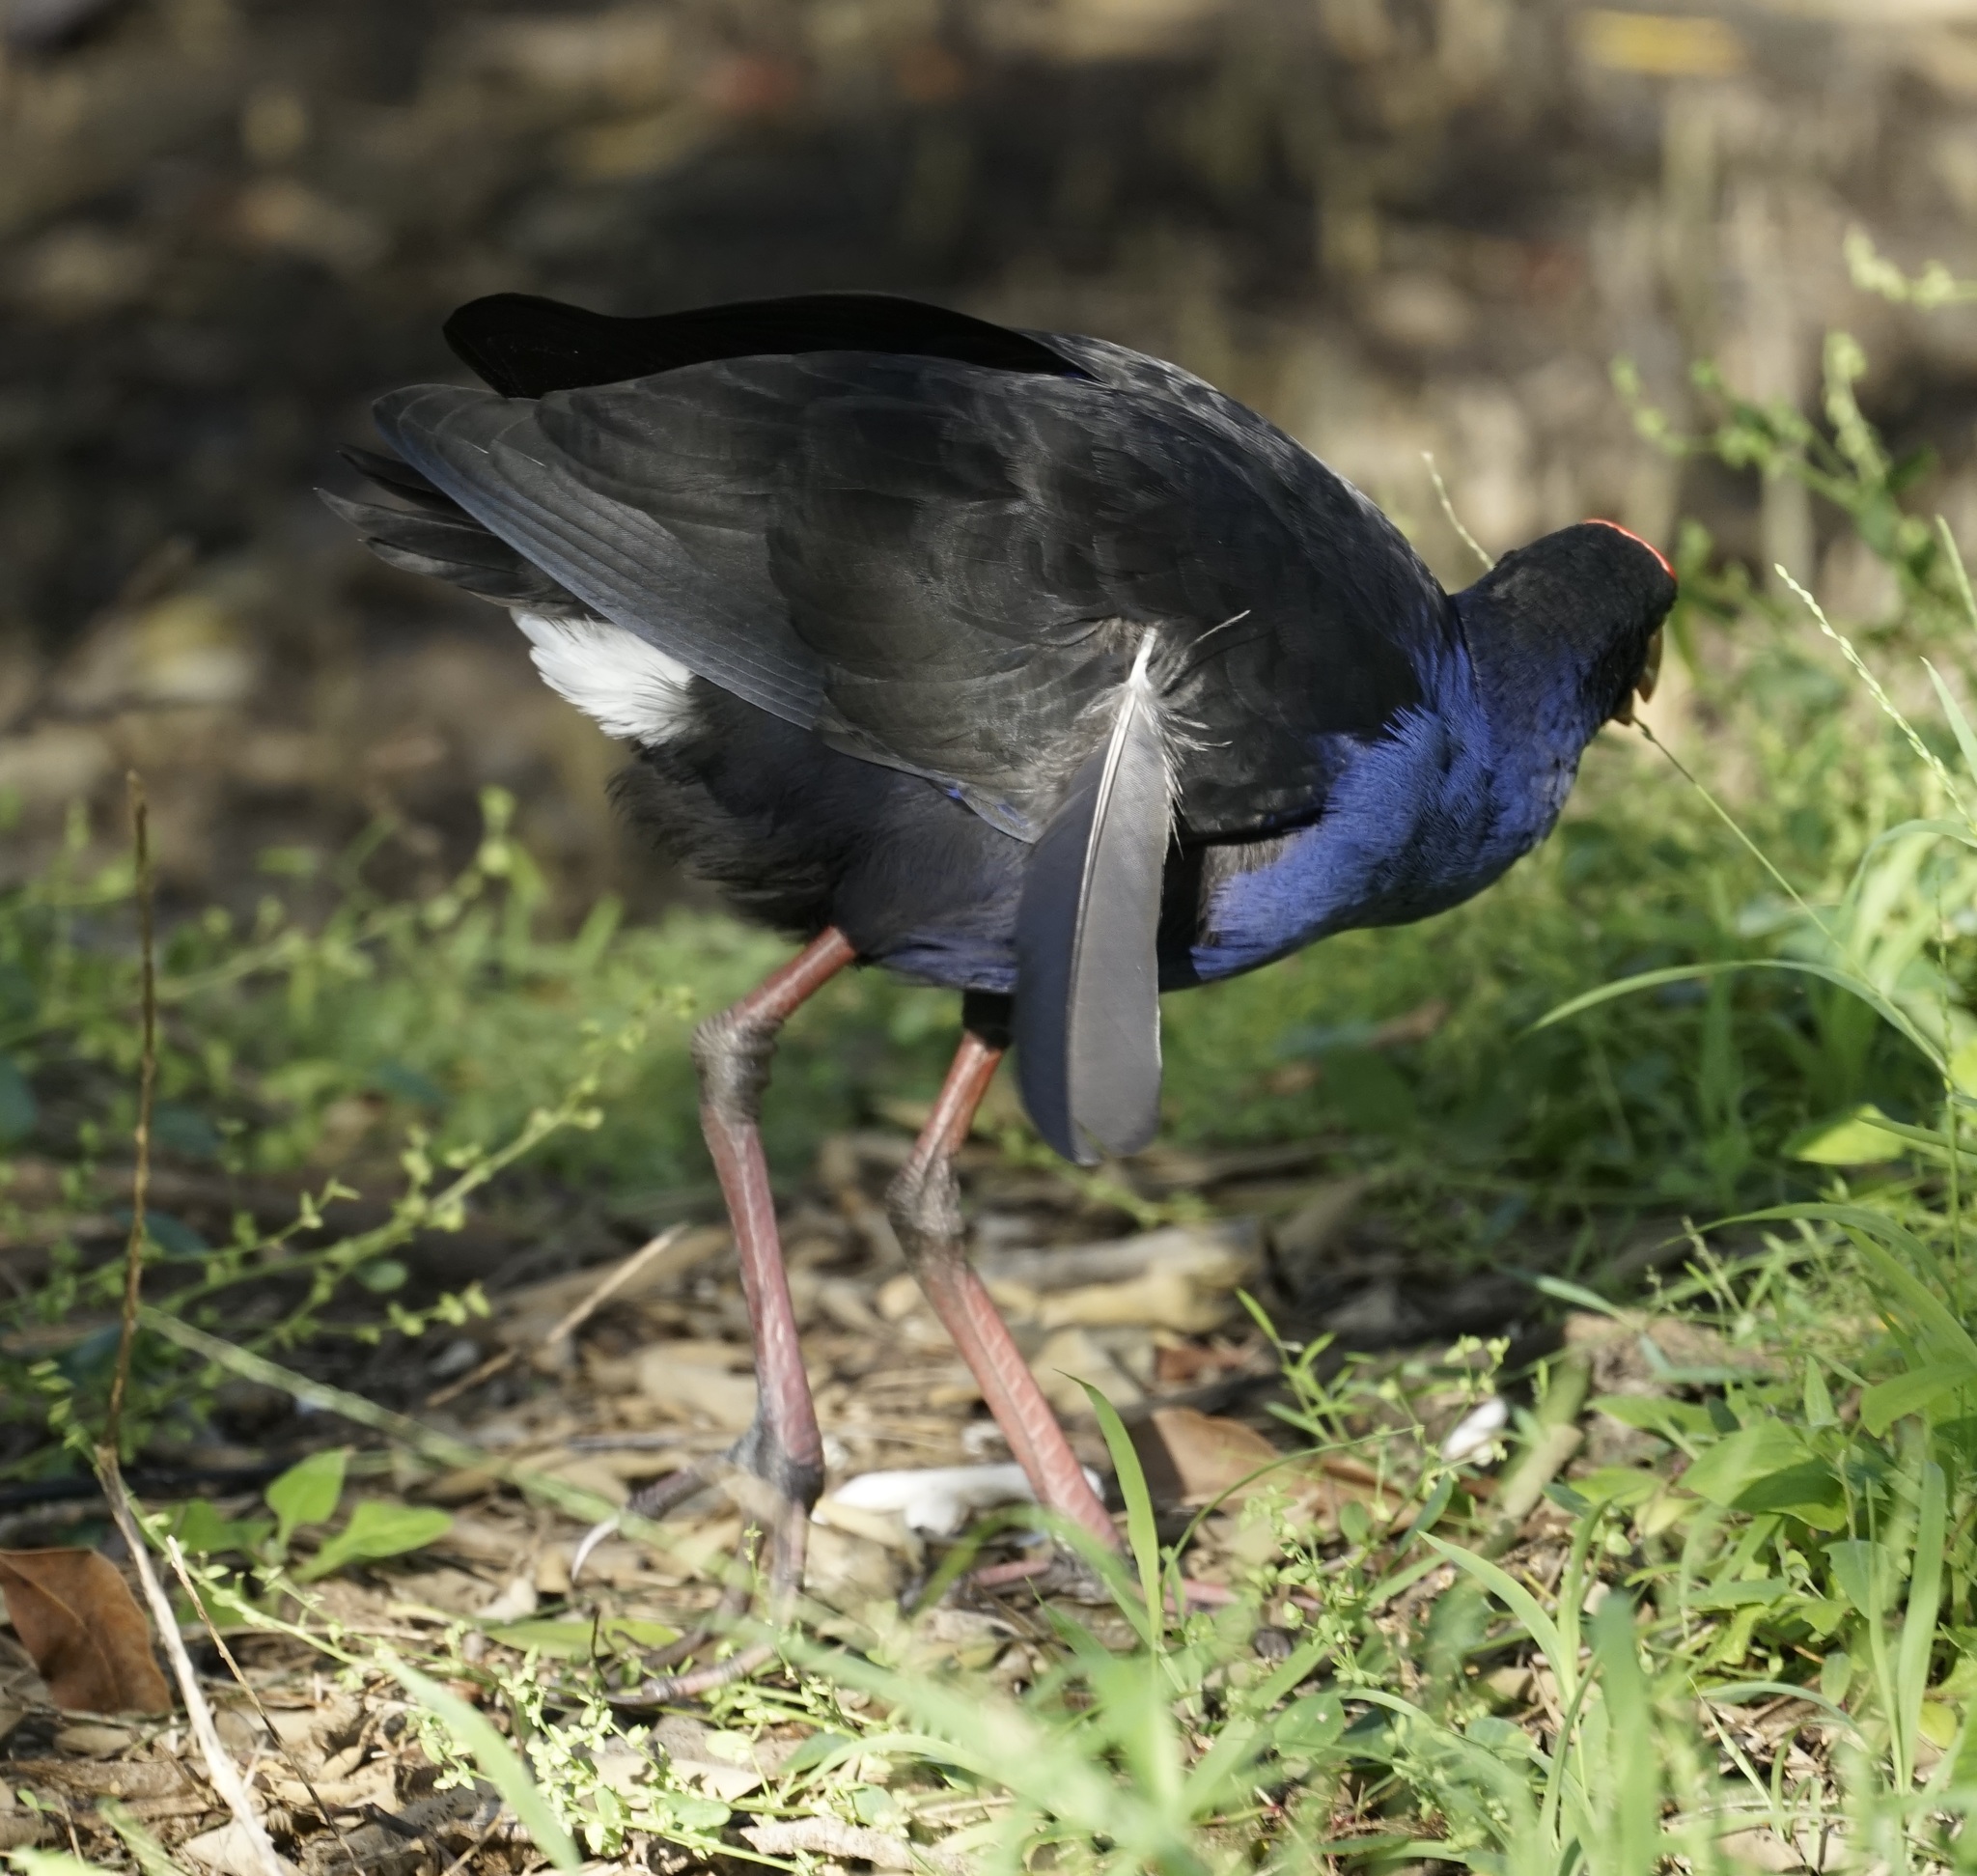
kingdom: Animalia
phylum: Chordata
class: Aves
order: Gruiformes
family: Rallidae
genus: Porphyrio
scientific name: Porphyrio melanotus
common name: Australasian swamphen
